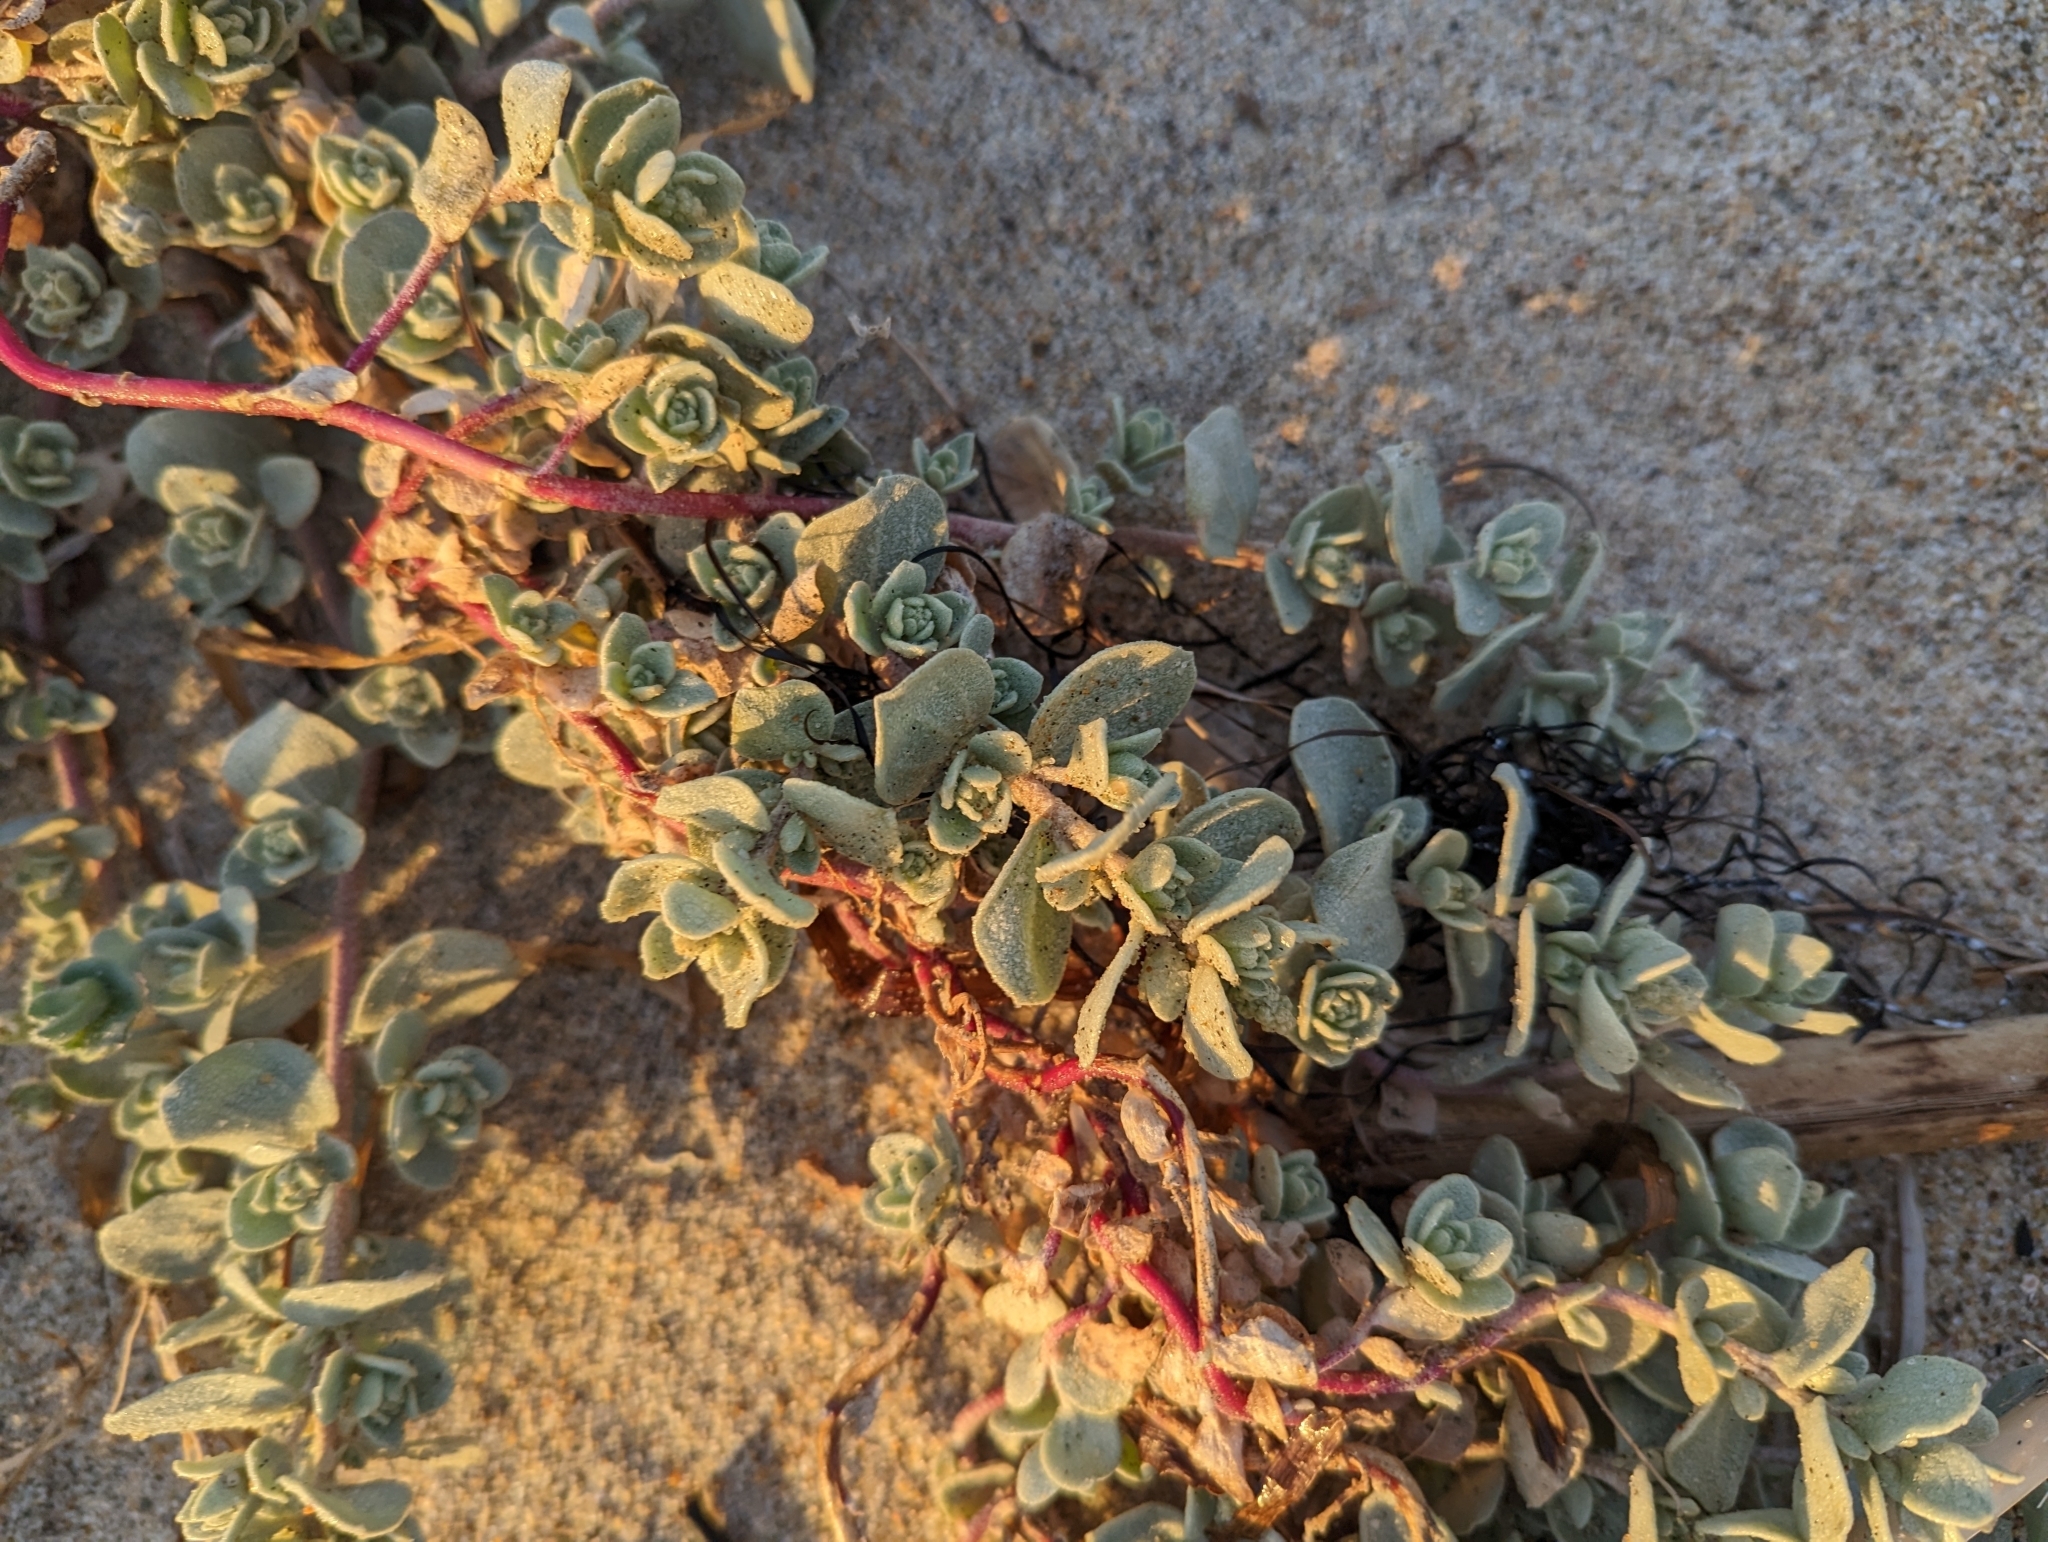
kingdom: Plantae
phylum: Tracheophyta
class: Magnoliopsida
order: Caryophyllales
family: Amaranthaceae
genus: Atriplex
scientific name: Atriplex leucophylla
